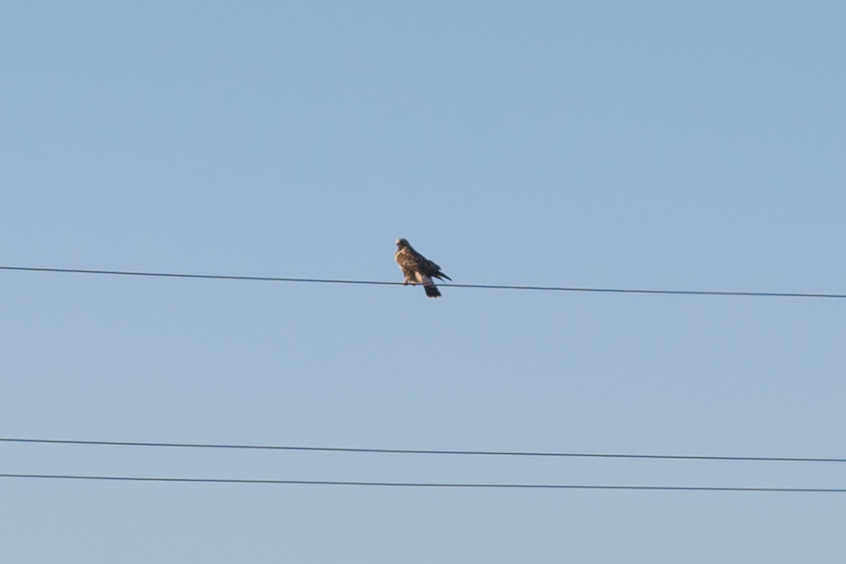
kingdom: Animalia
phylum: Chordata
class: Aves
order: Accipitriformes
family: Accipitridae
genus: Buteo
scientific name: Buteo lagopus
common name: Rough-legged buzzard
